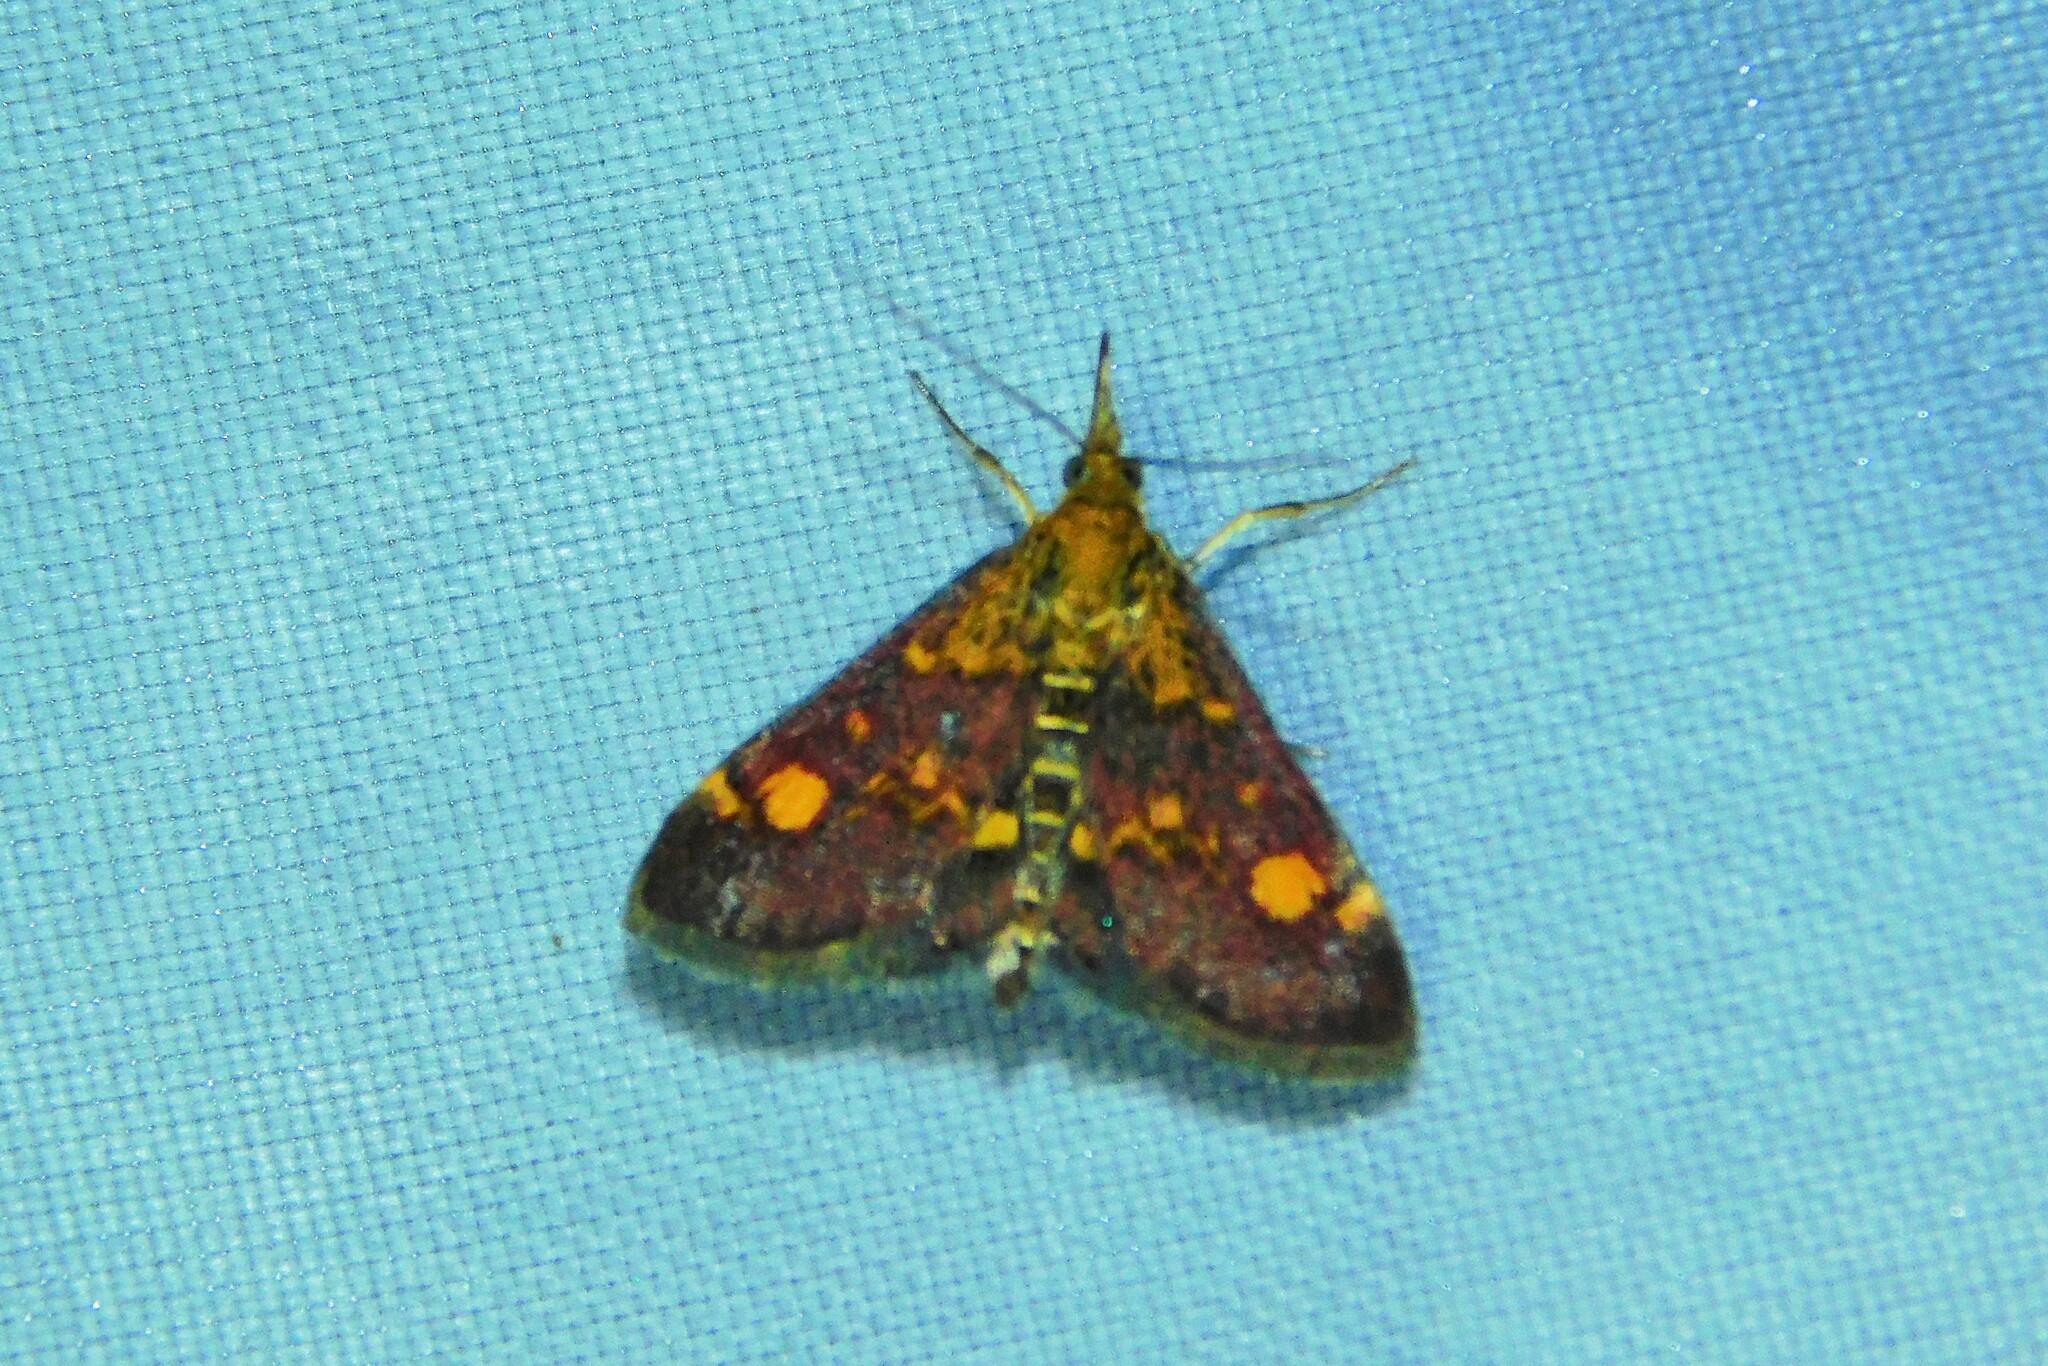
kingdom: Animalia
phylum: Arthropoda
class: Insecta
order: Lepidoptera
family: Crambidae
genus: Pyrausta
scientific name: Pyrausta aurata
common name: Small purple & gold
